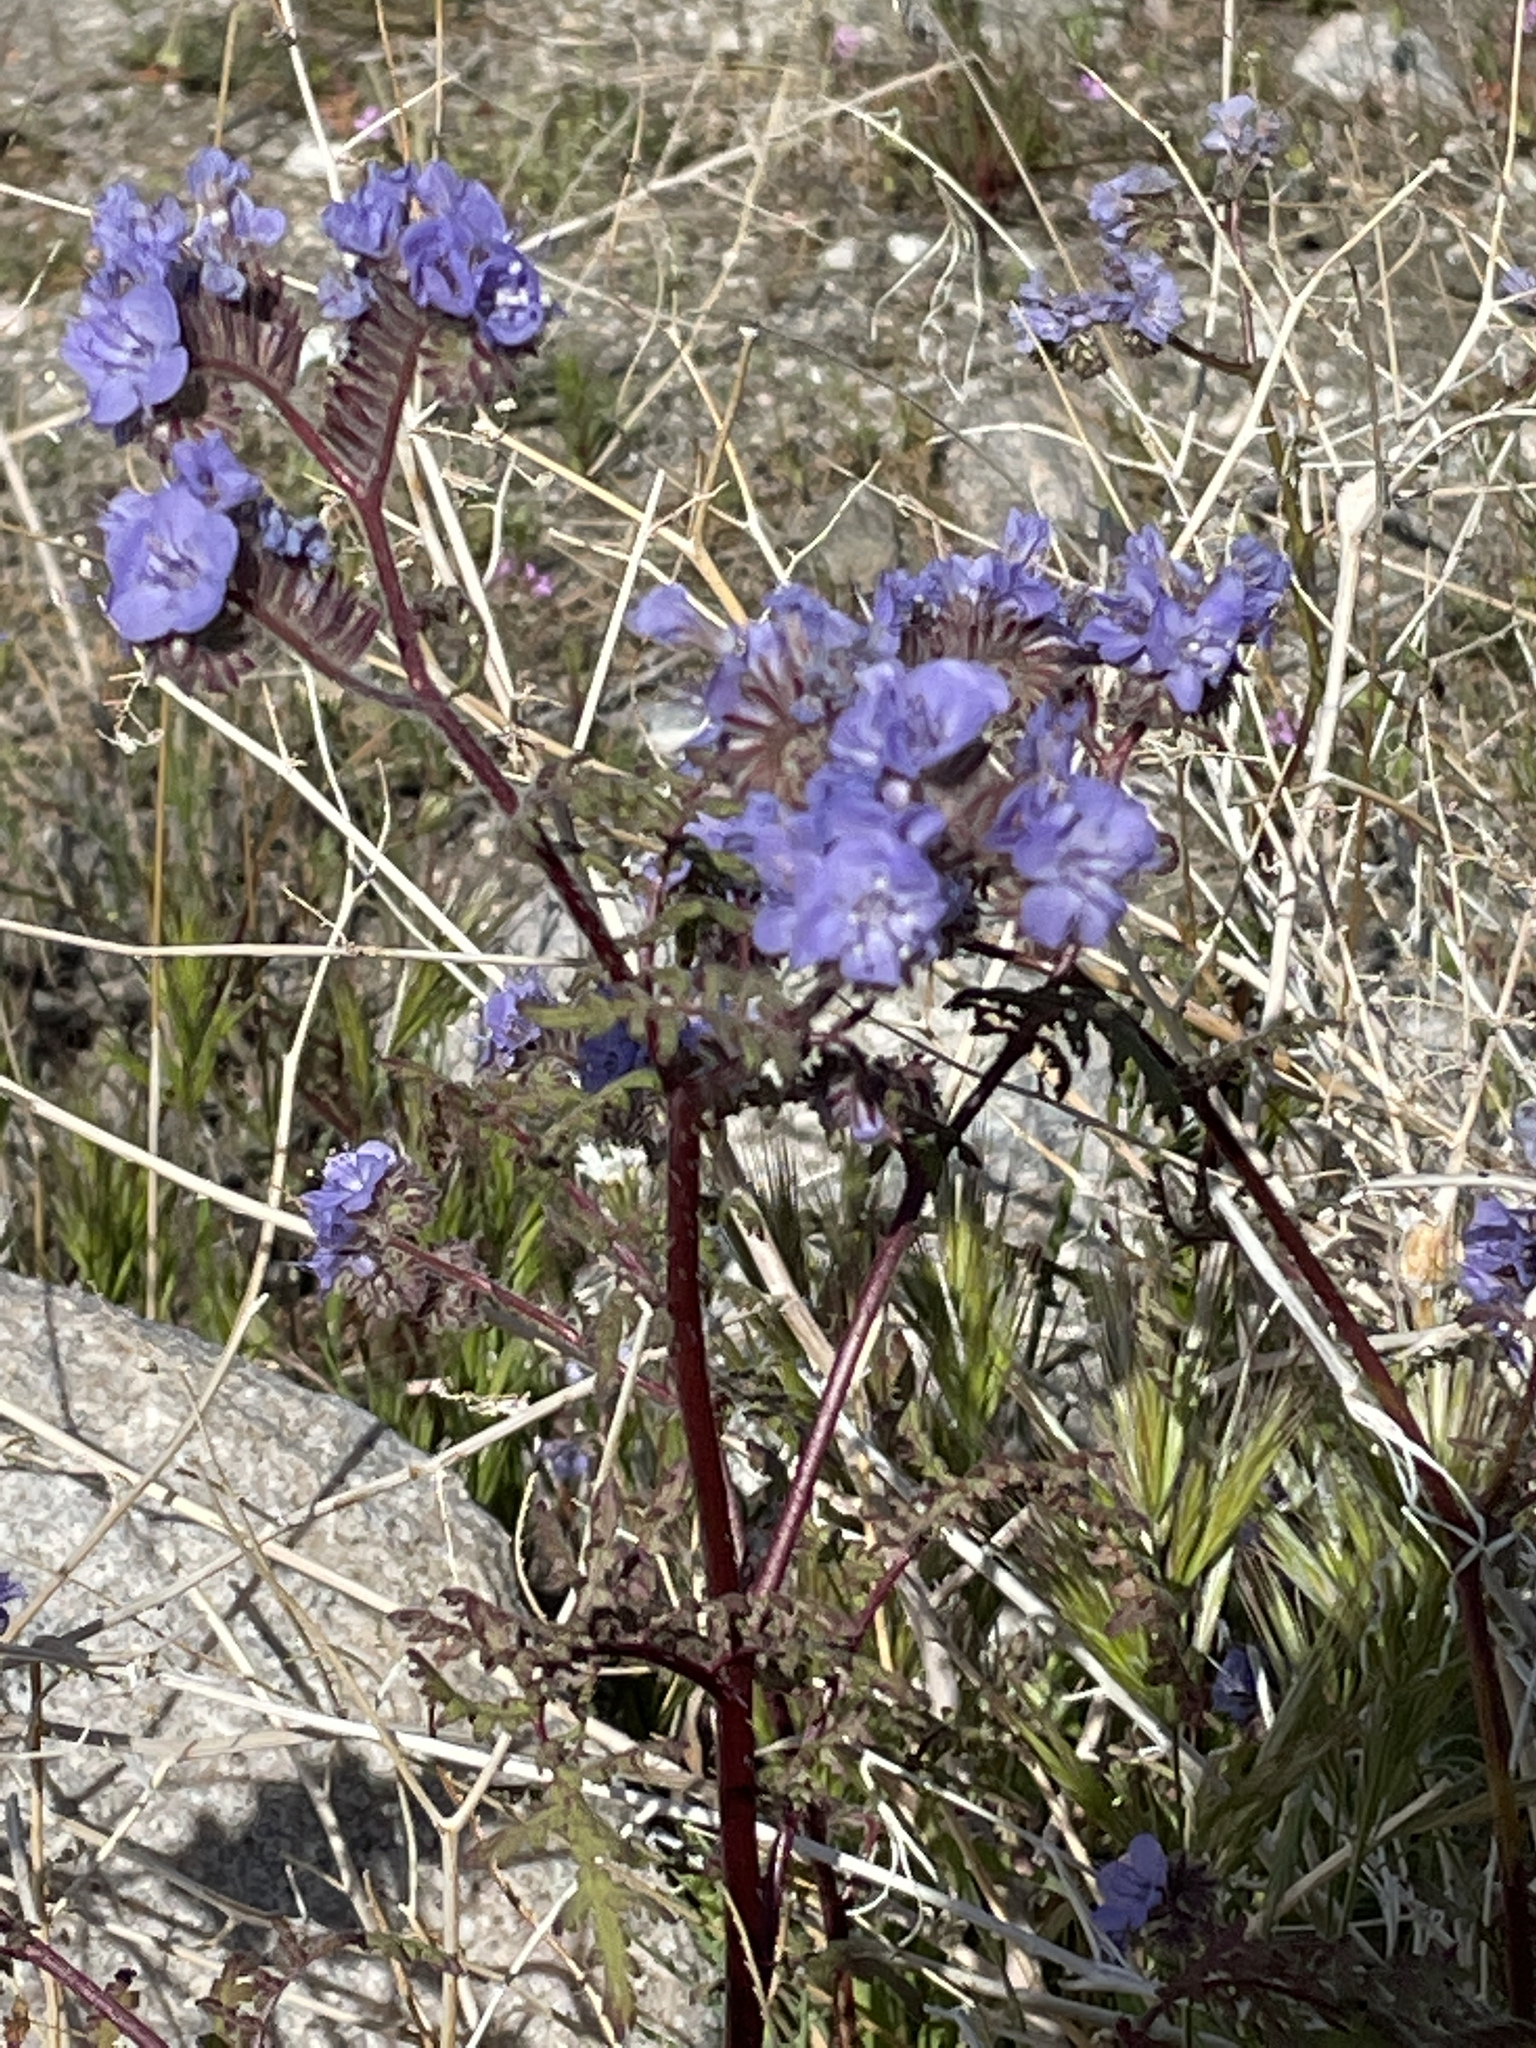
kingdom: Plantae
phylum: Tracheophyta
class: Magnoliopsida
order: Boraginales
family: Hydrophyllaceae
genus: Phacelia
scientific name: Phacelia distans
